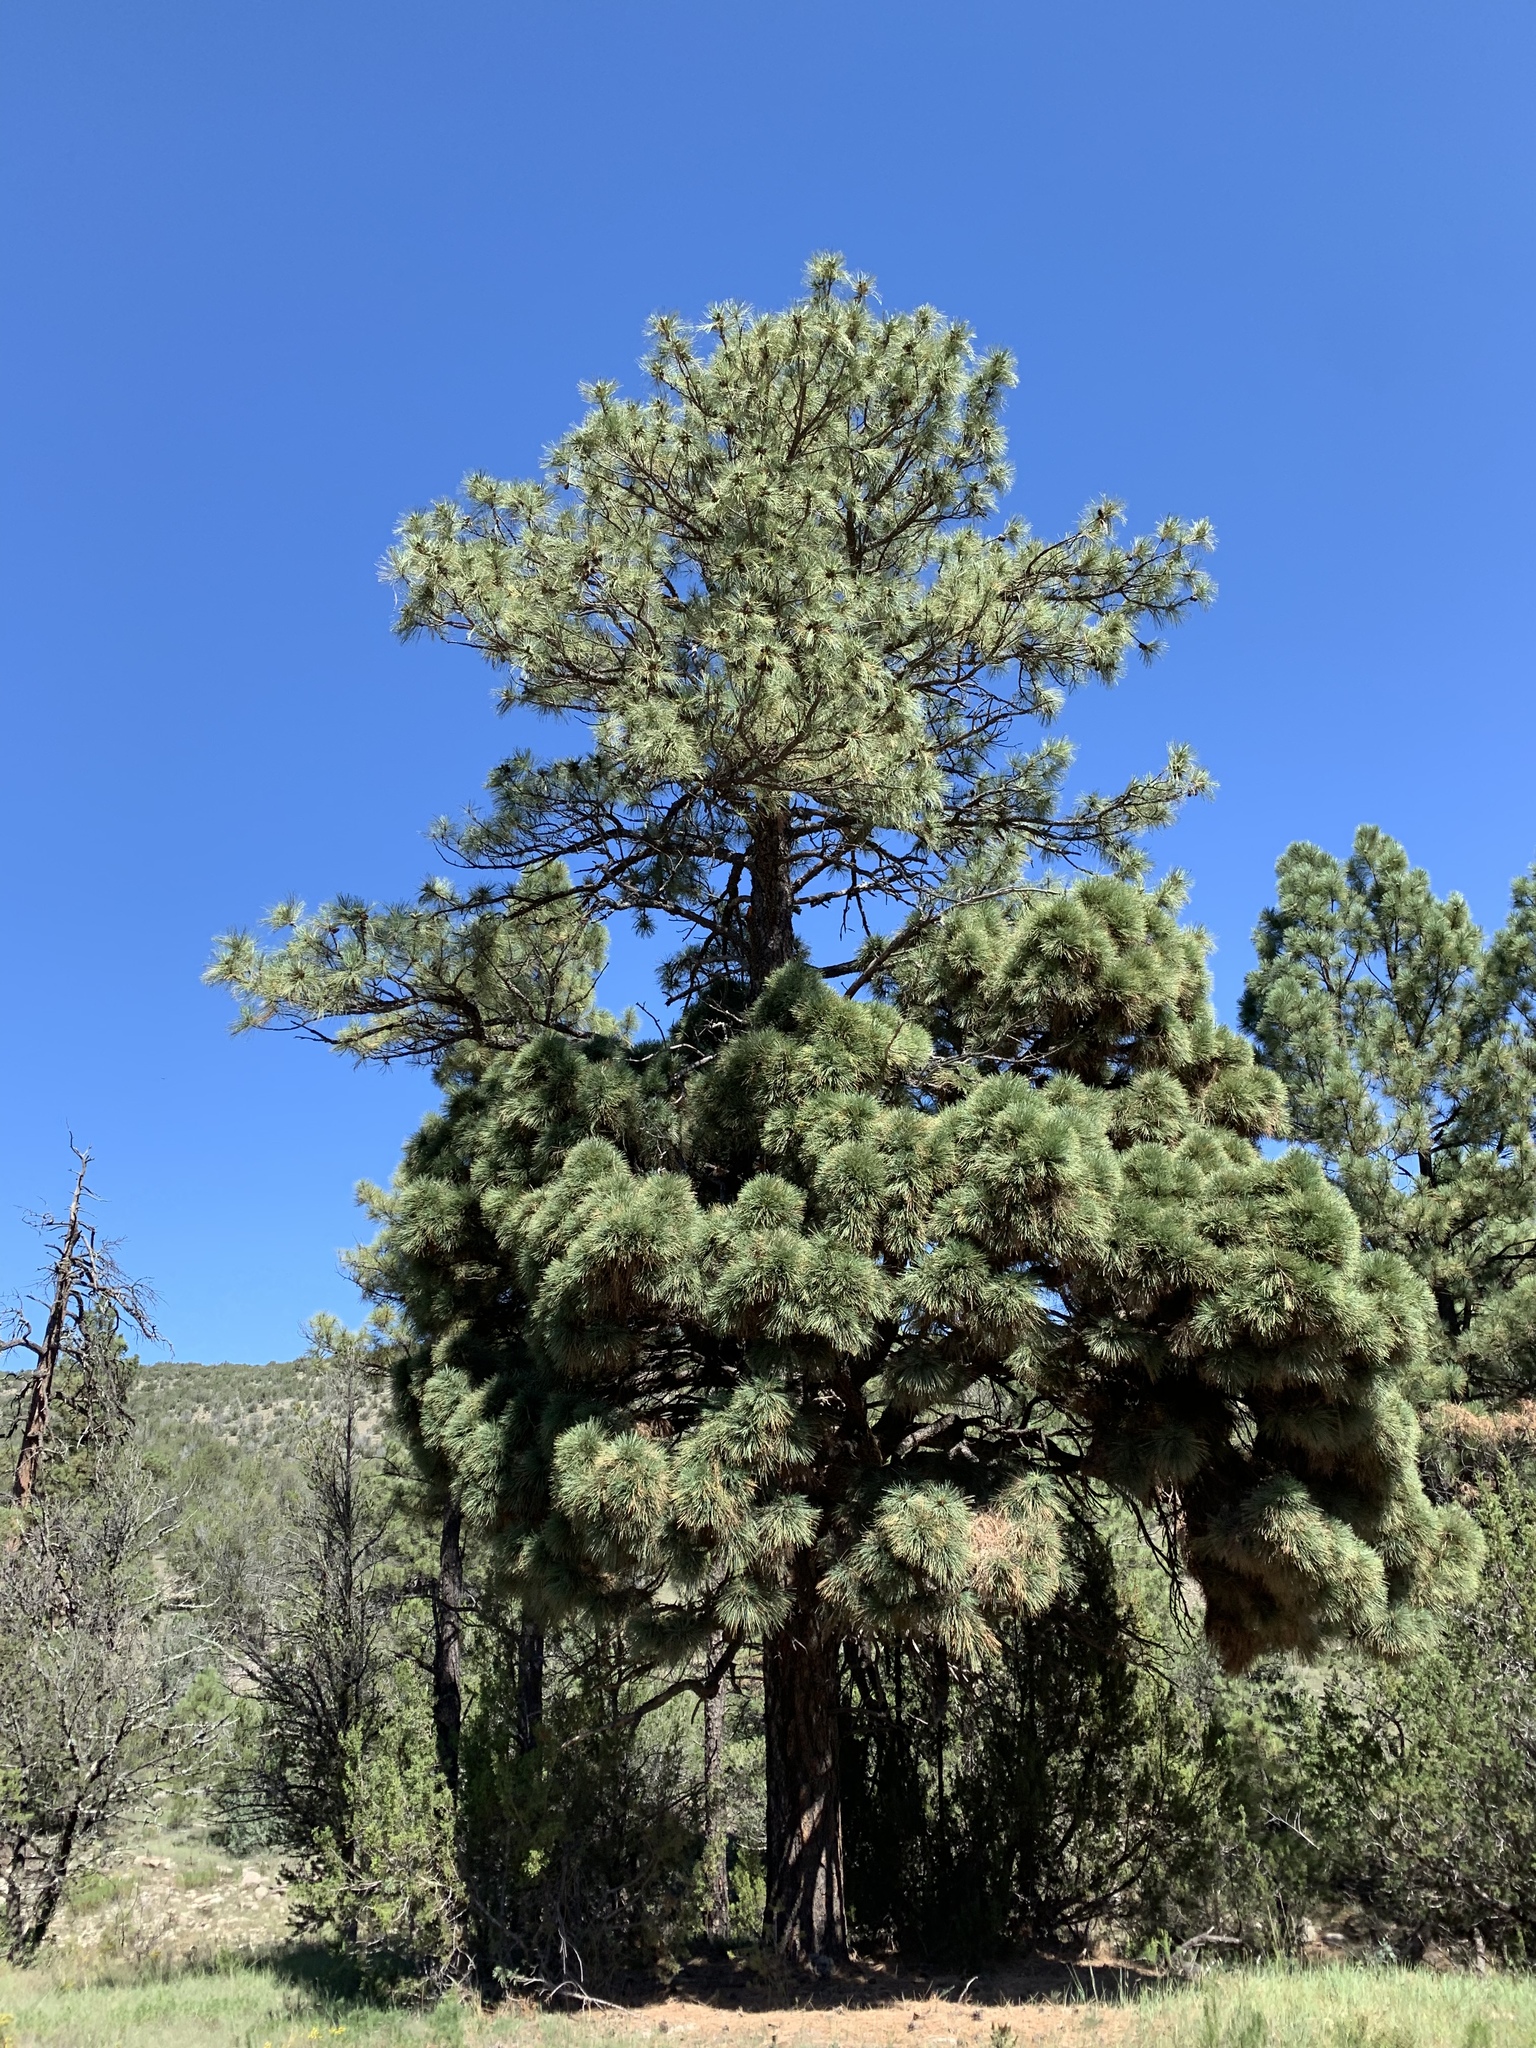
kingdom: Plantae
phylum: Tracheophyta
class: Pinopsida
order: Pinales
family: Pinaceae
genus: Pinus
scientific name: Pinus ponderosa
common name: Western yellow-pine
